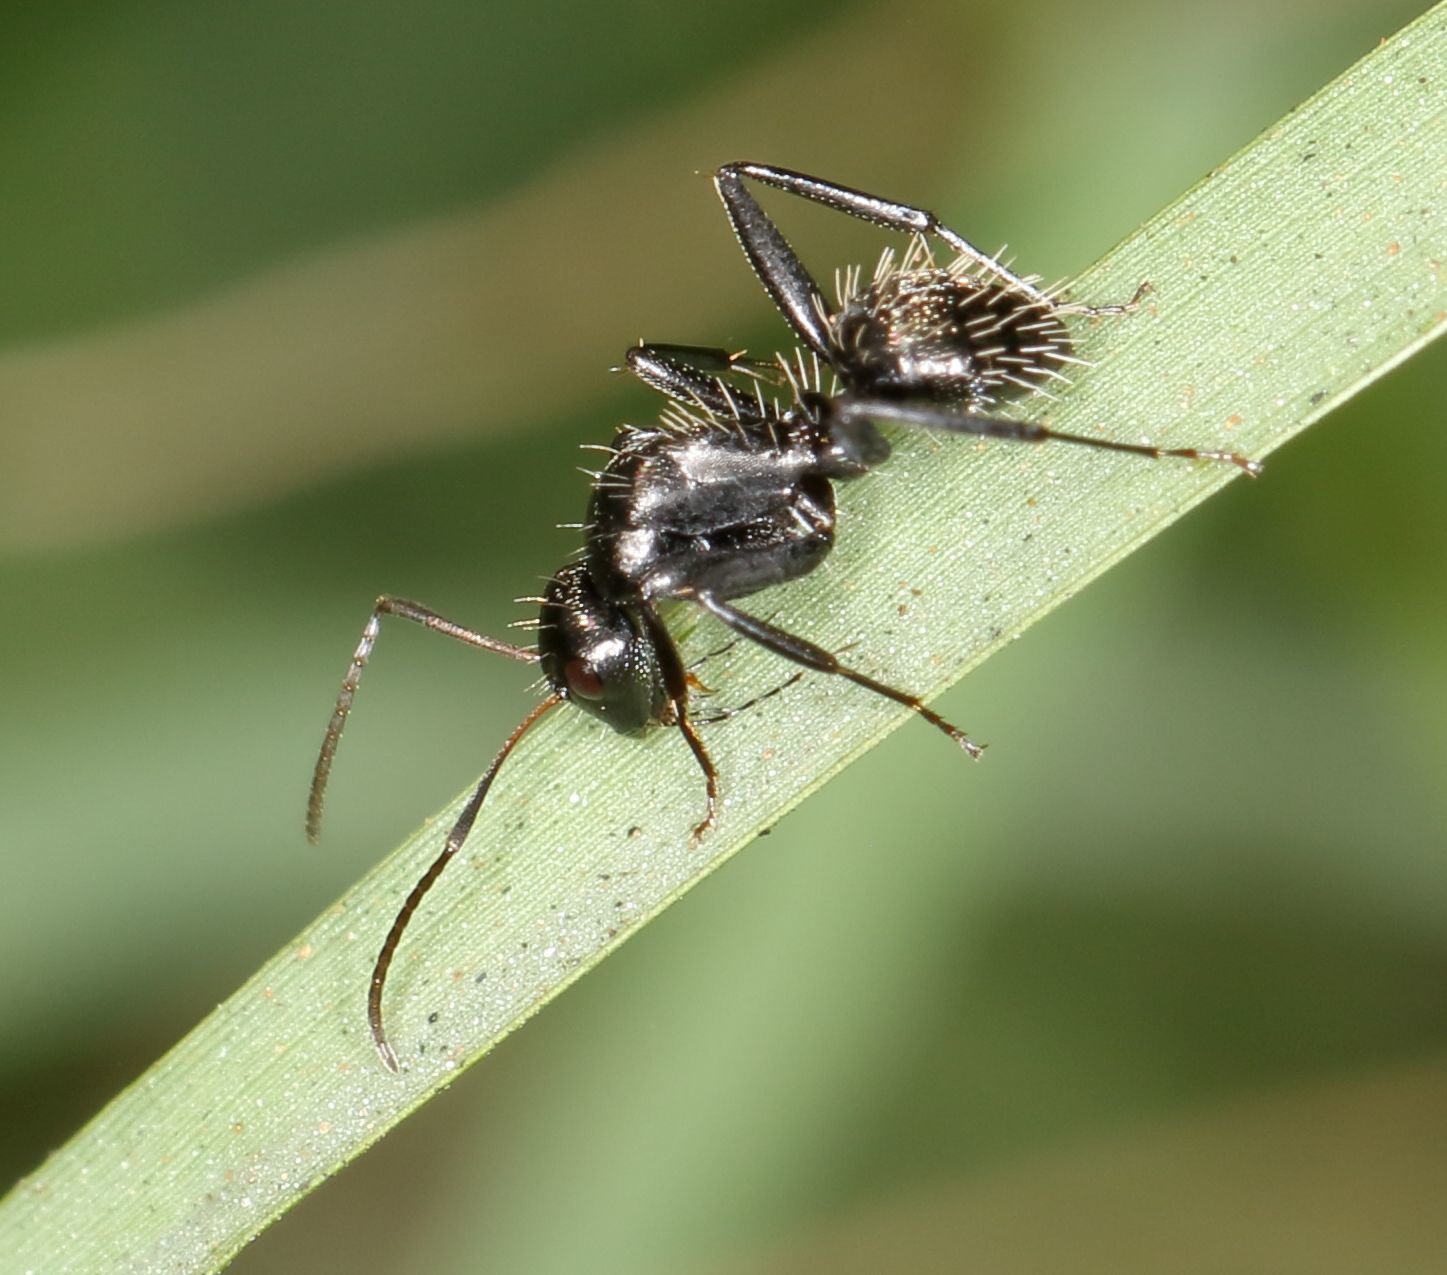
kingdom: Animalia
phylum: Arthropoda
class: Insecta
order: Hymenoptera
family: Formicidae
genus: Camponotus
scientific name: Camponotus niveosetosus
